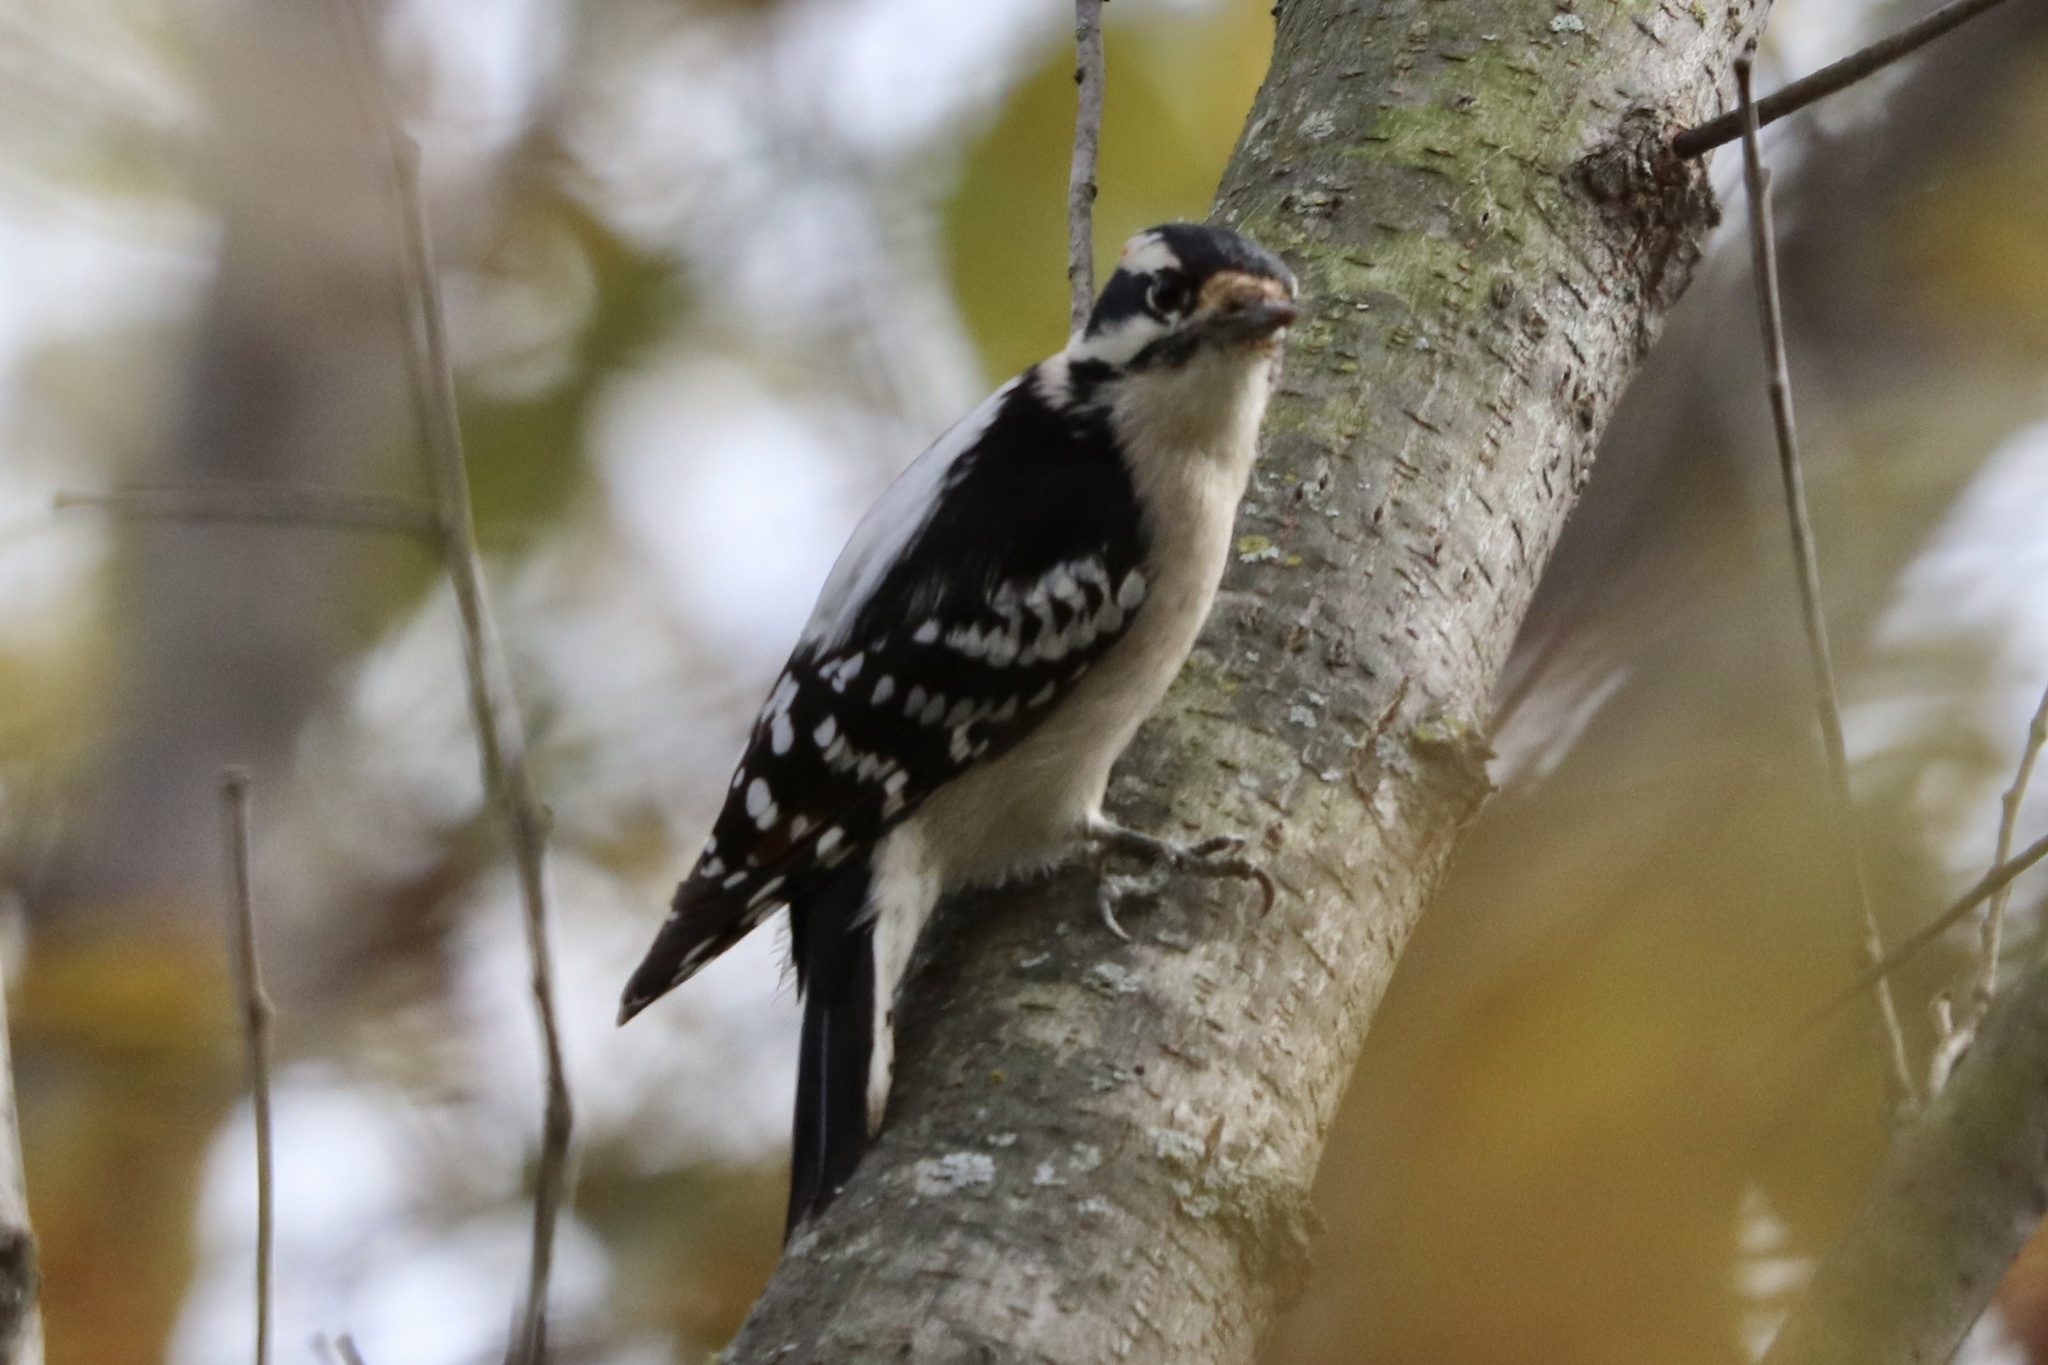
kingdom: Animalia
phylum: Chordata
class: Aves
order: Piciformes
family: Picidae
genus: Dryobates
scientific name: Dryobates pubescens
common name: Downy woodpecker
